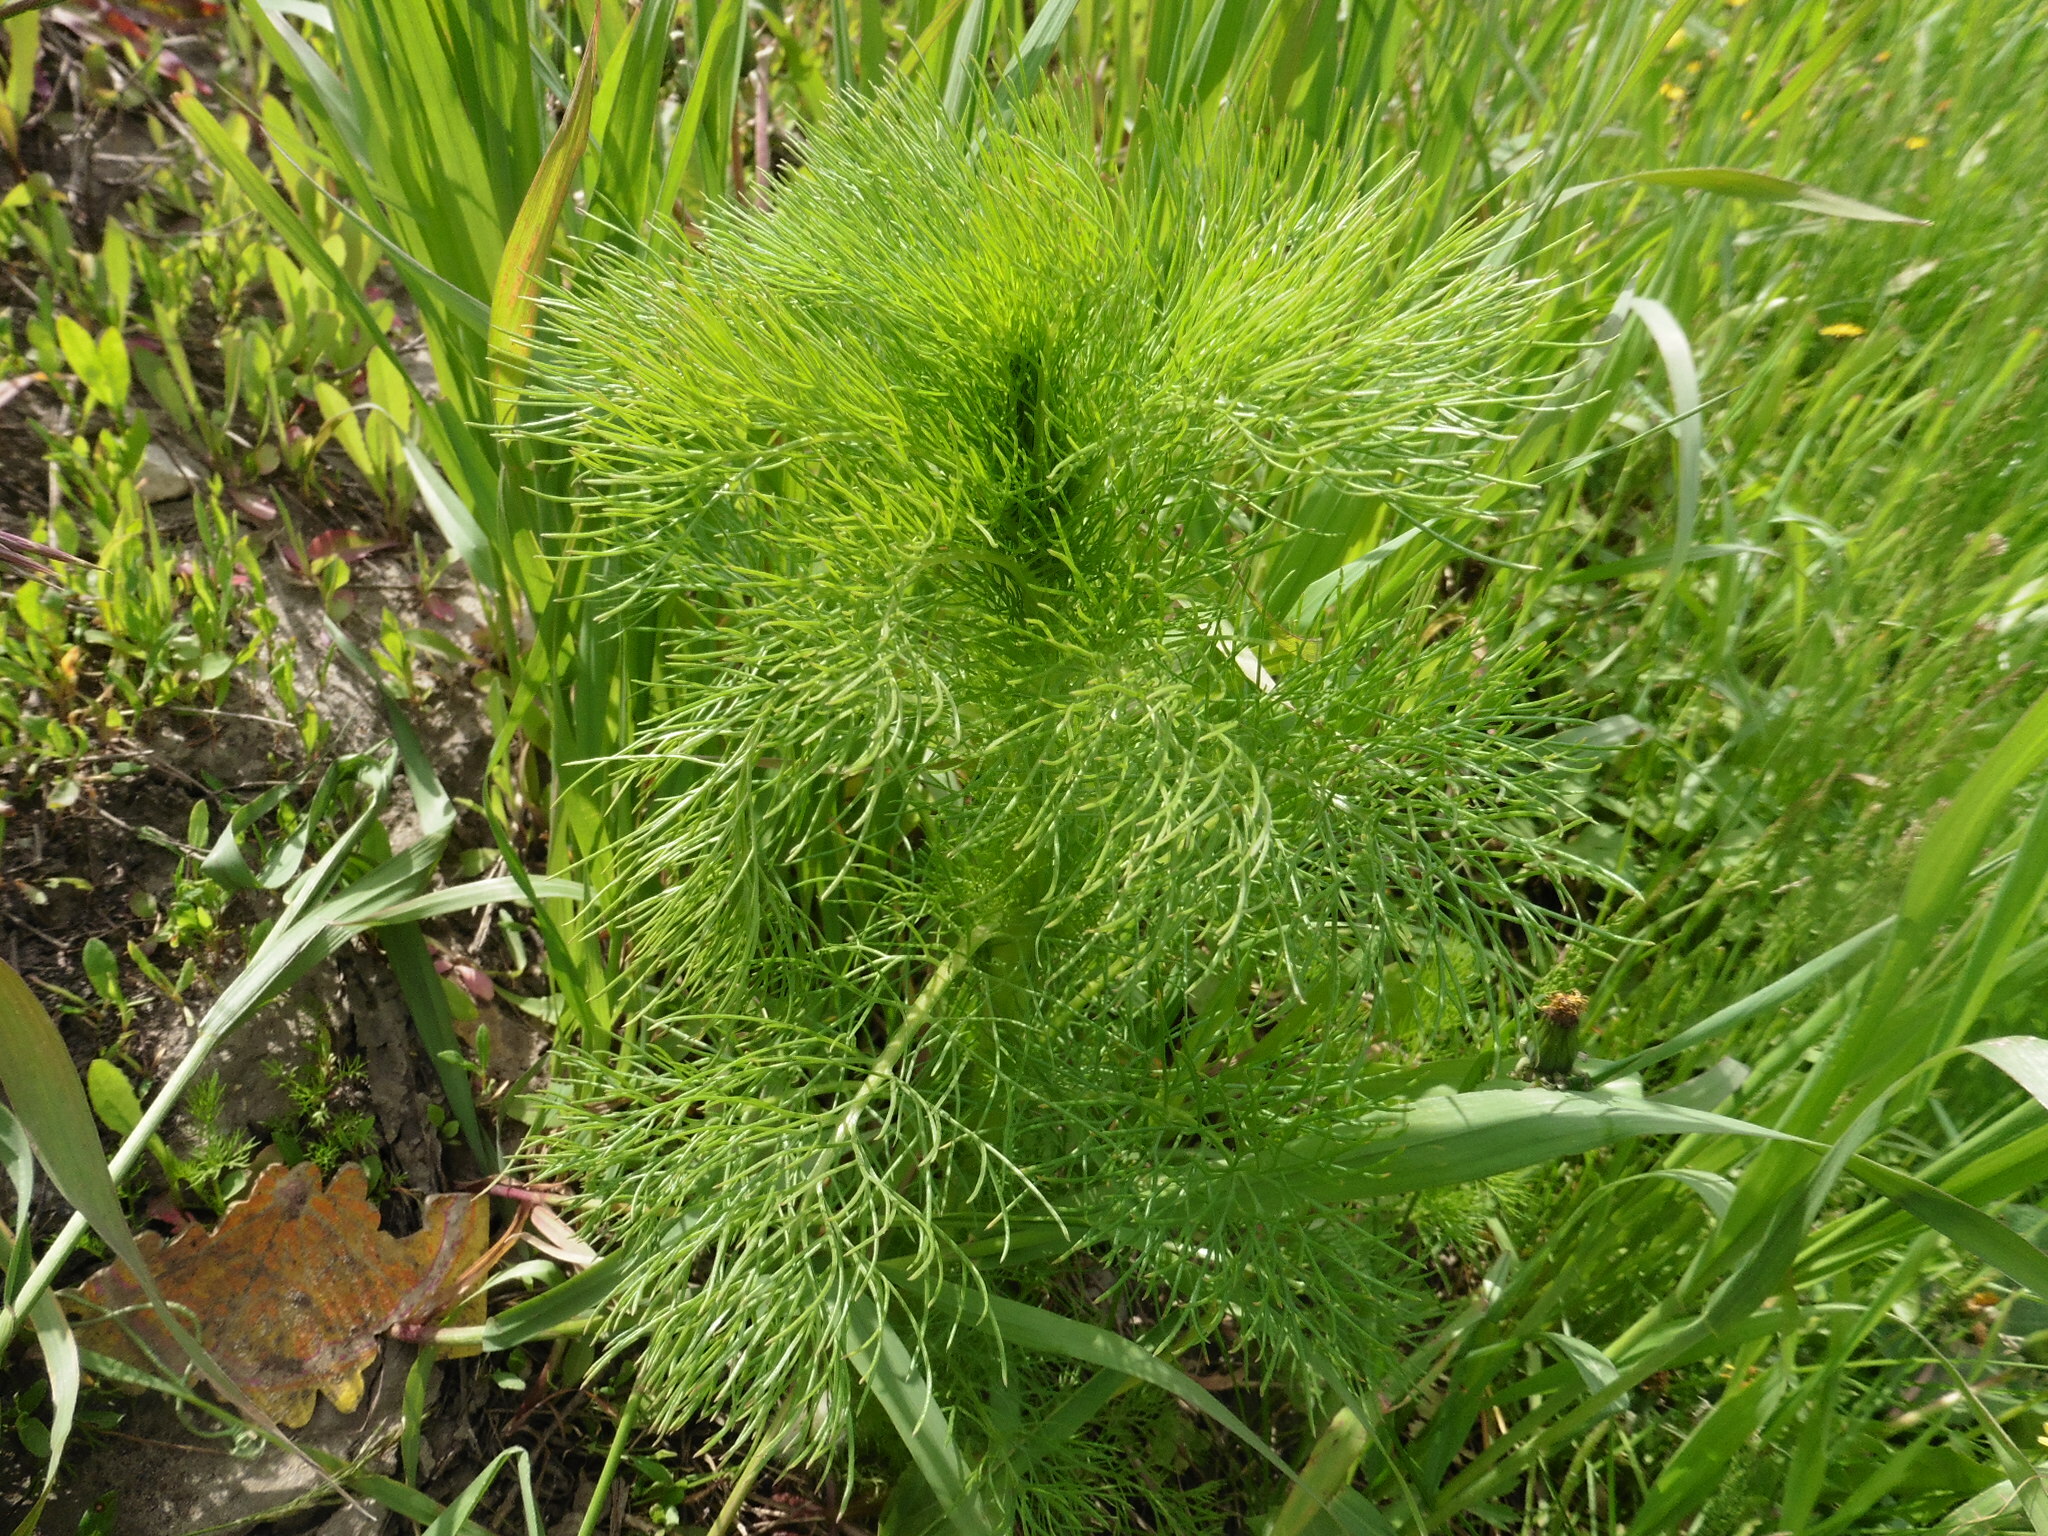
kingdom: Plantae
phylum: Tracheophyta
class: Magnoliopsida
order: Asterales
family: Asteraceae
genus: Tripleurospermum
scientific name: Tripleurospermum inodorum
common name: Scentless mayweed
